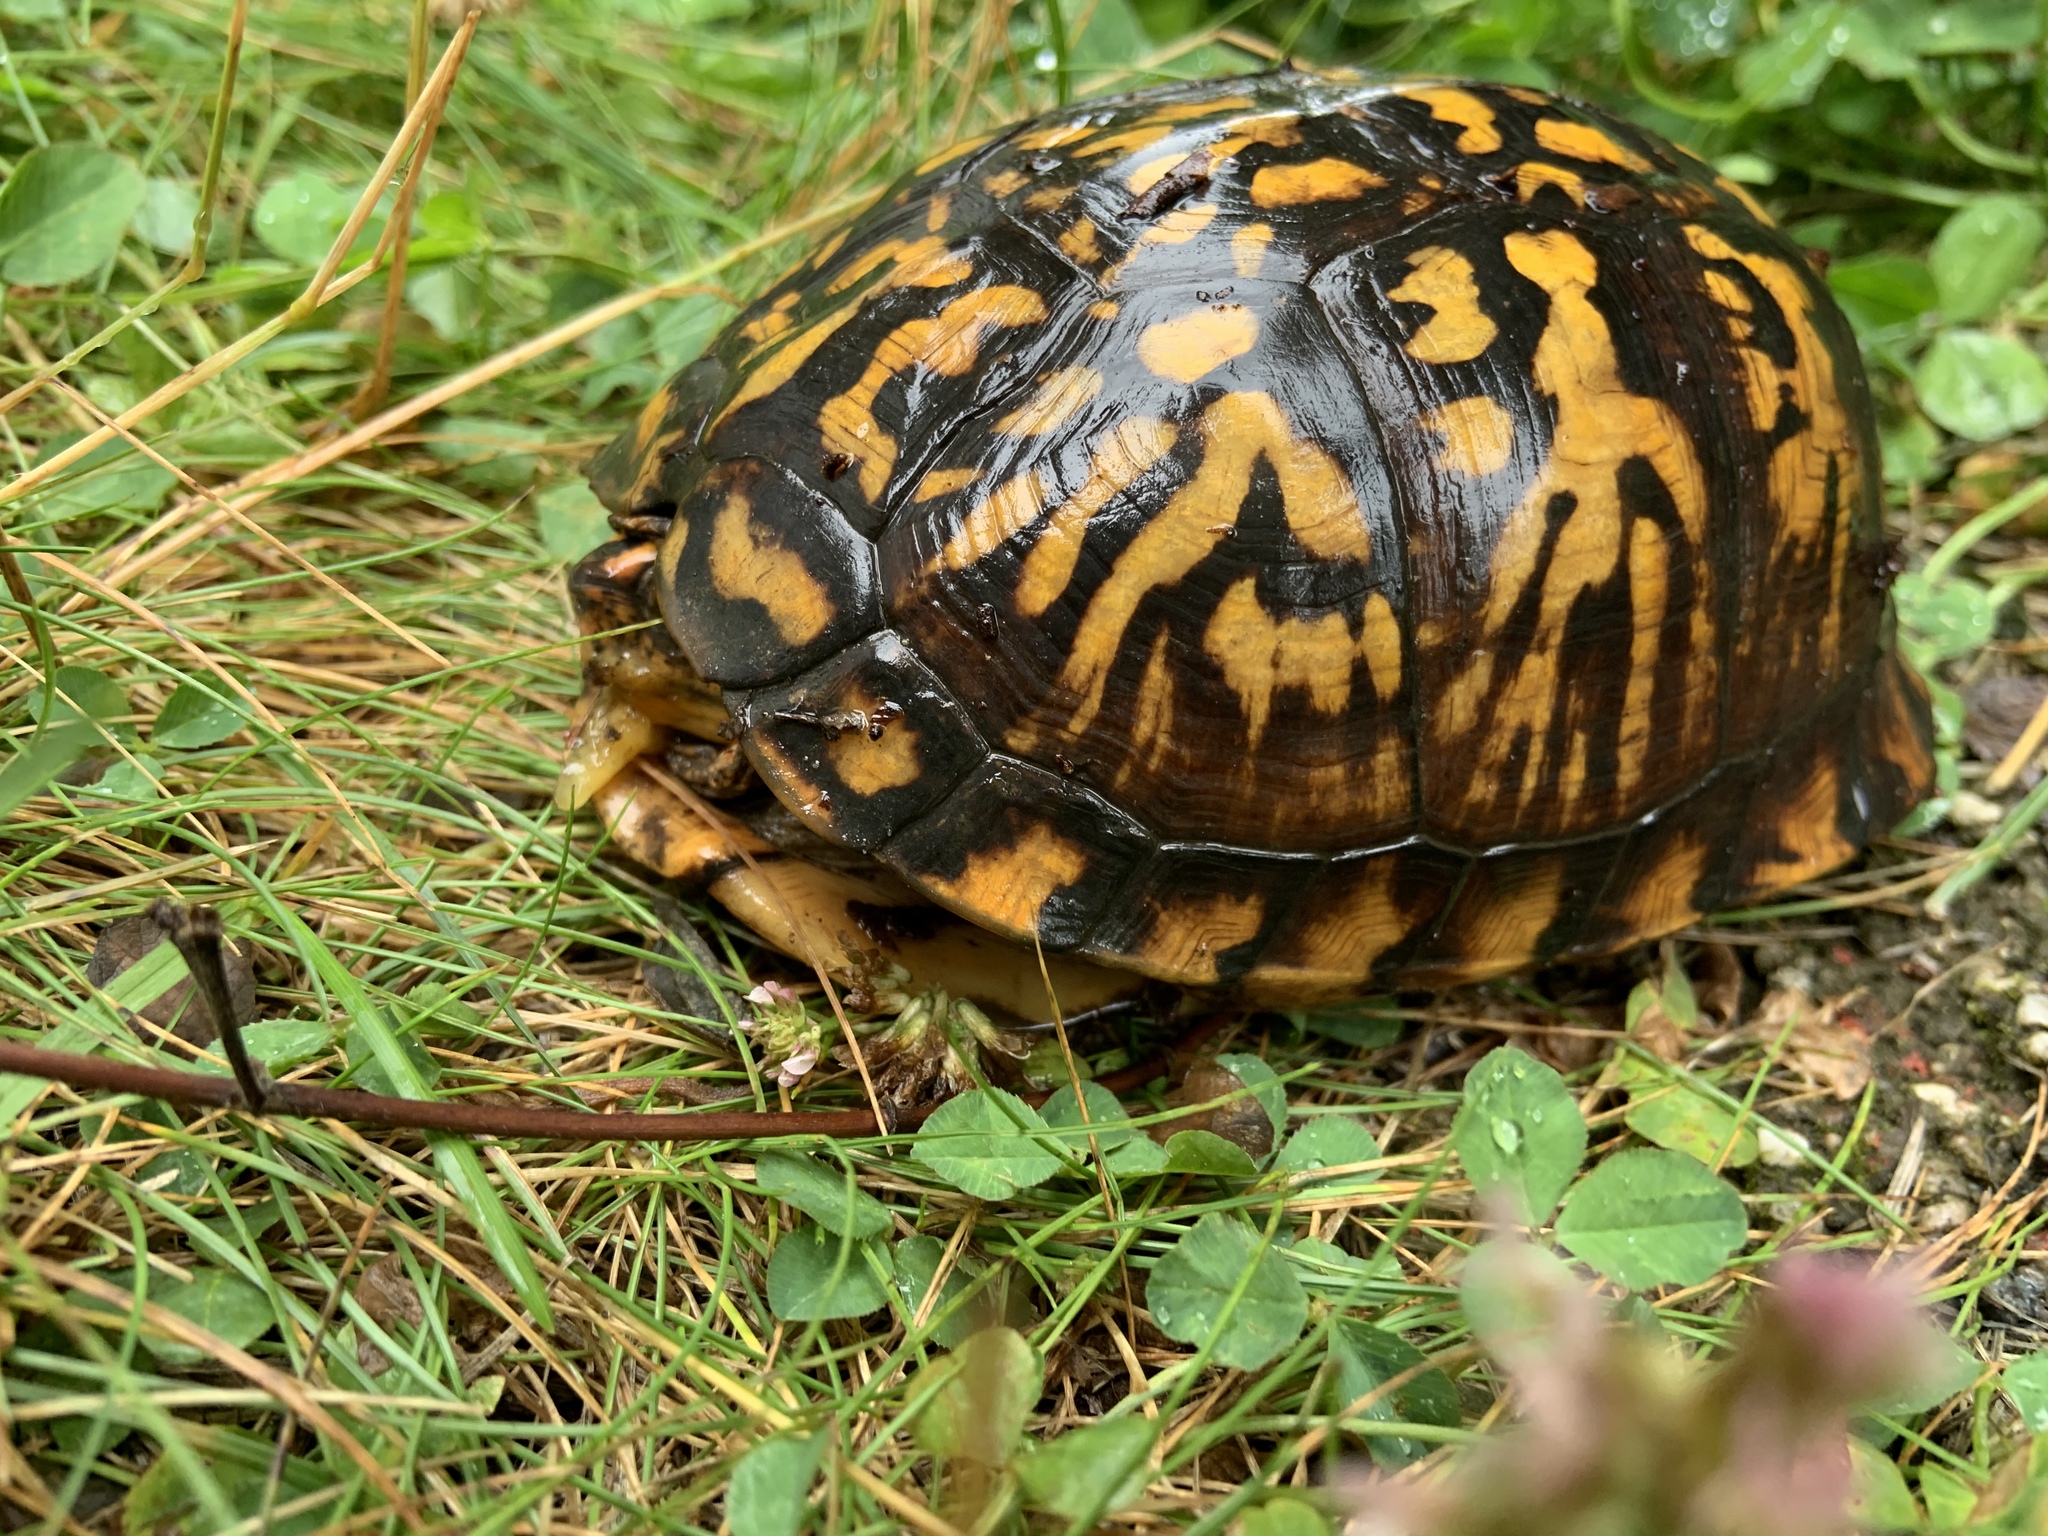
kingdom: Animalia
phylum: Chordata
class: Testudines
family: Emydidae
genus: Terrapene
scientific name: Terrapene carolina
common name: Common box turtle
